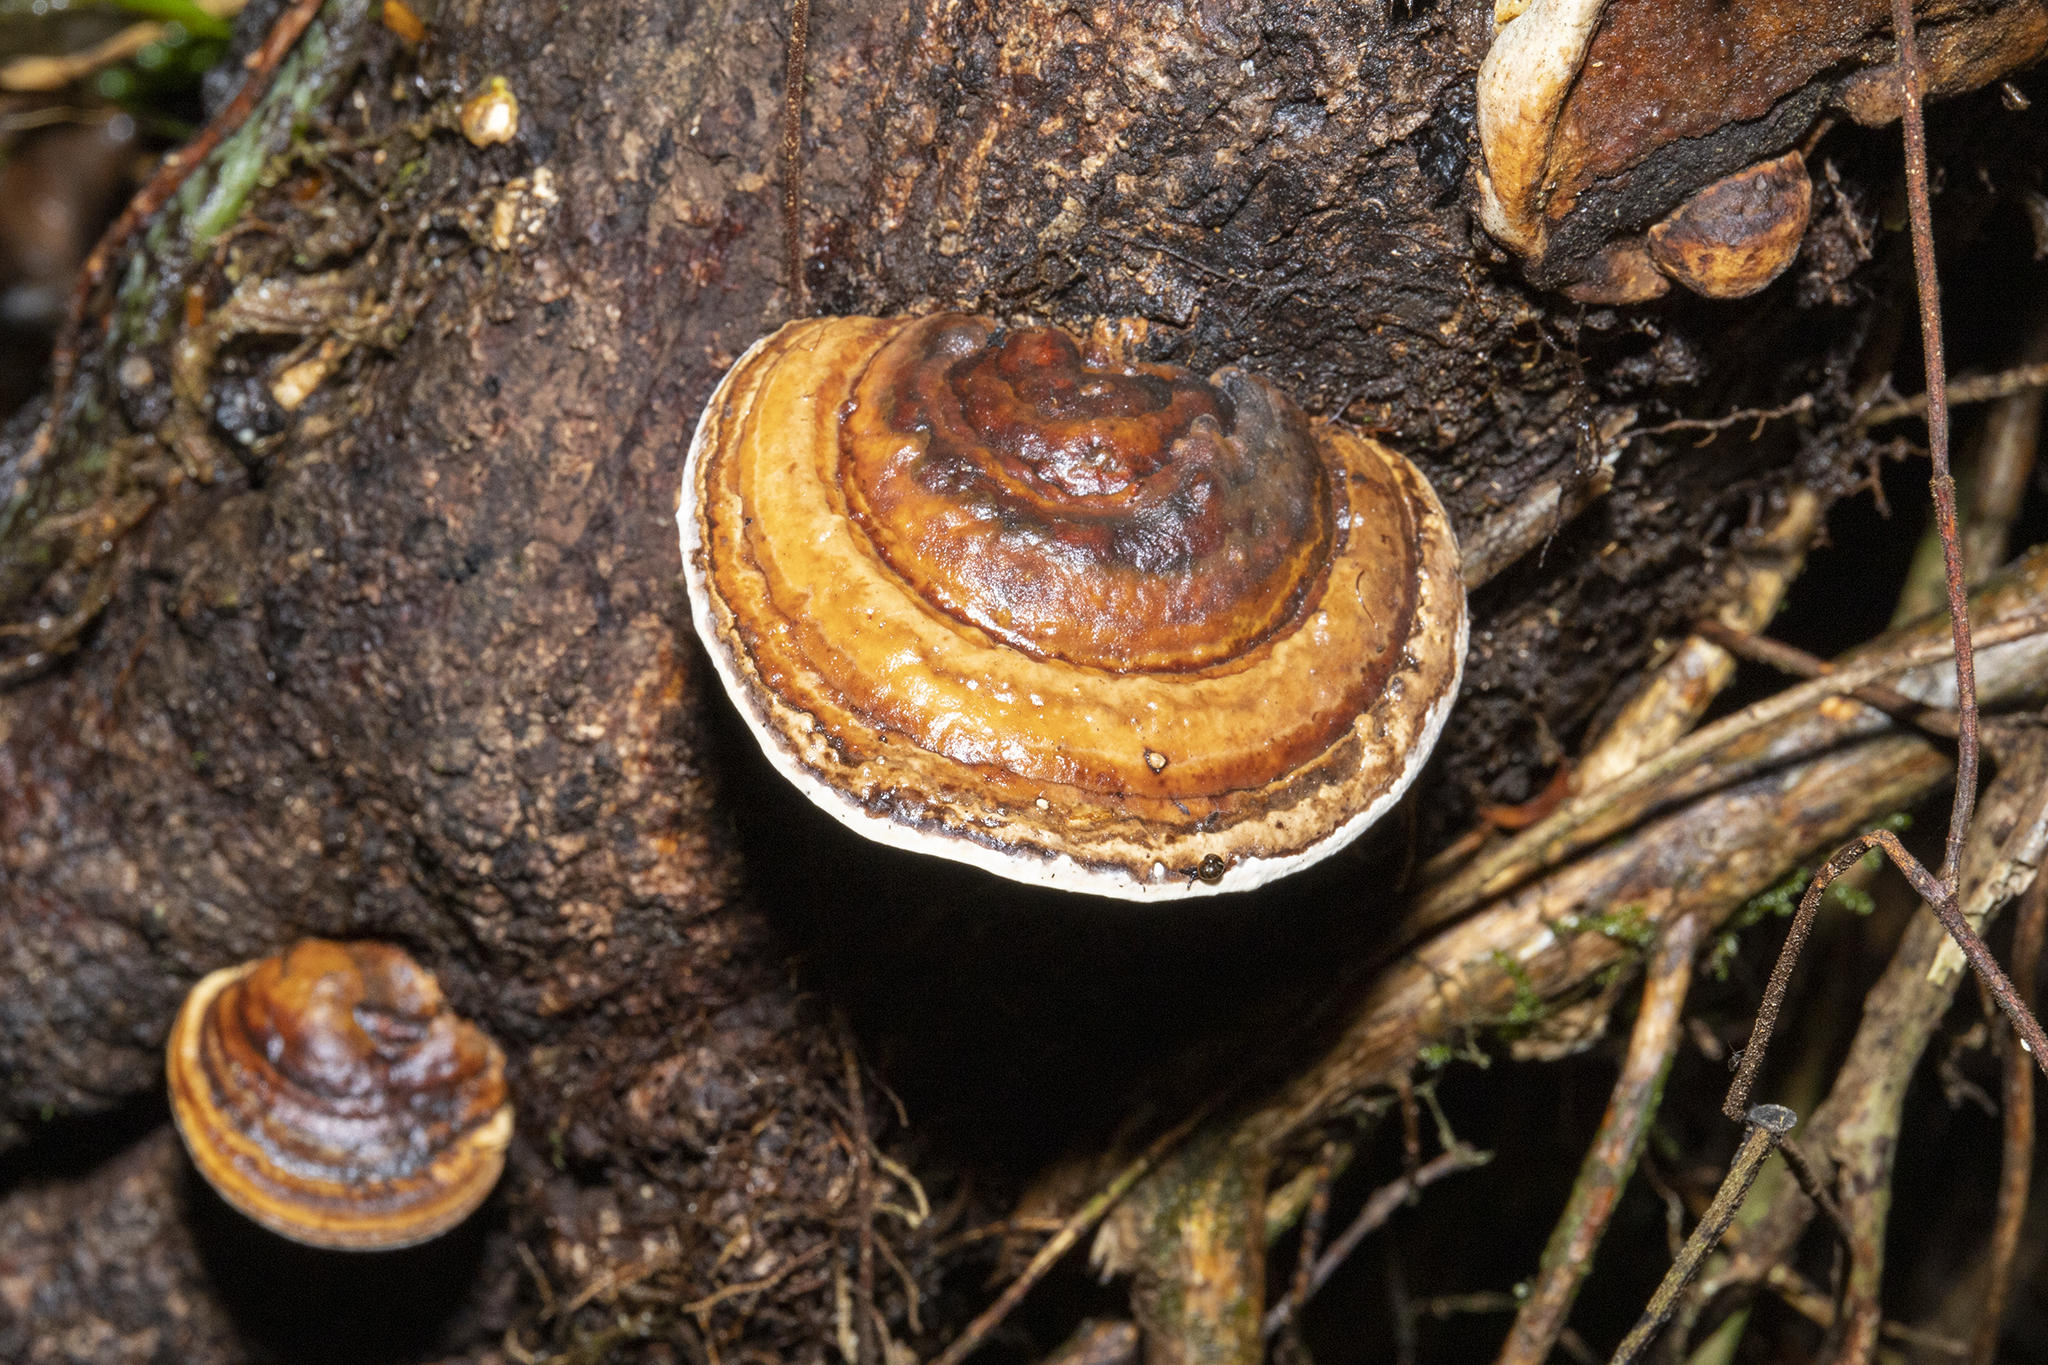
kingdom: Fungi
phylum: Basidiomycota
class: Agaricomycetes
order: Polyporales
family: Fomitopsidaceae
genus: Pilatoporus
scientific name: Pilatoporus hemitephrus
